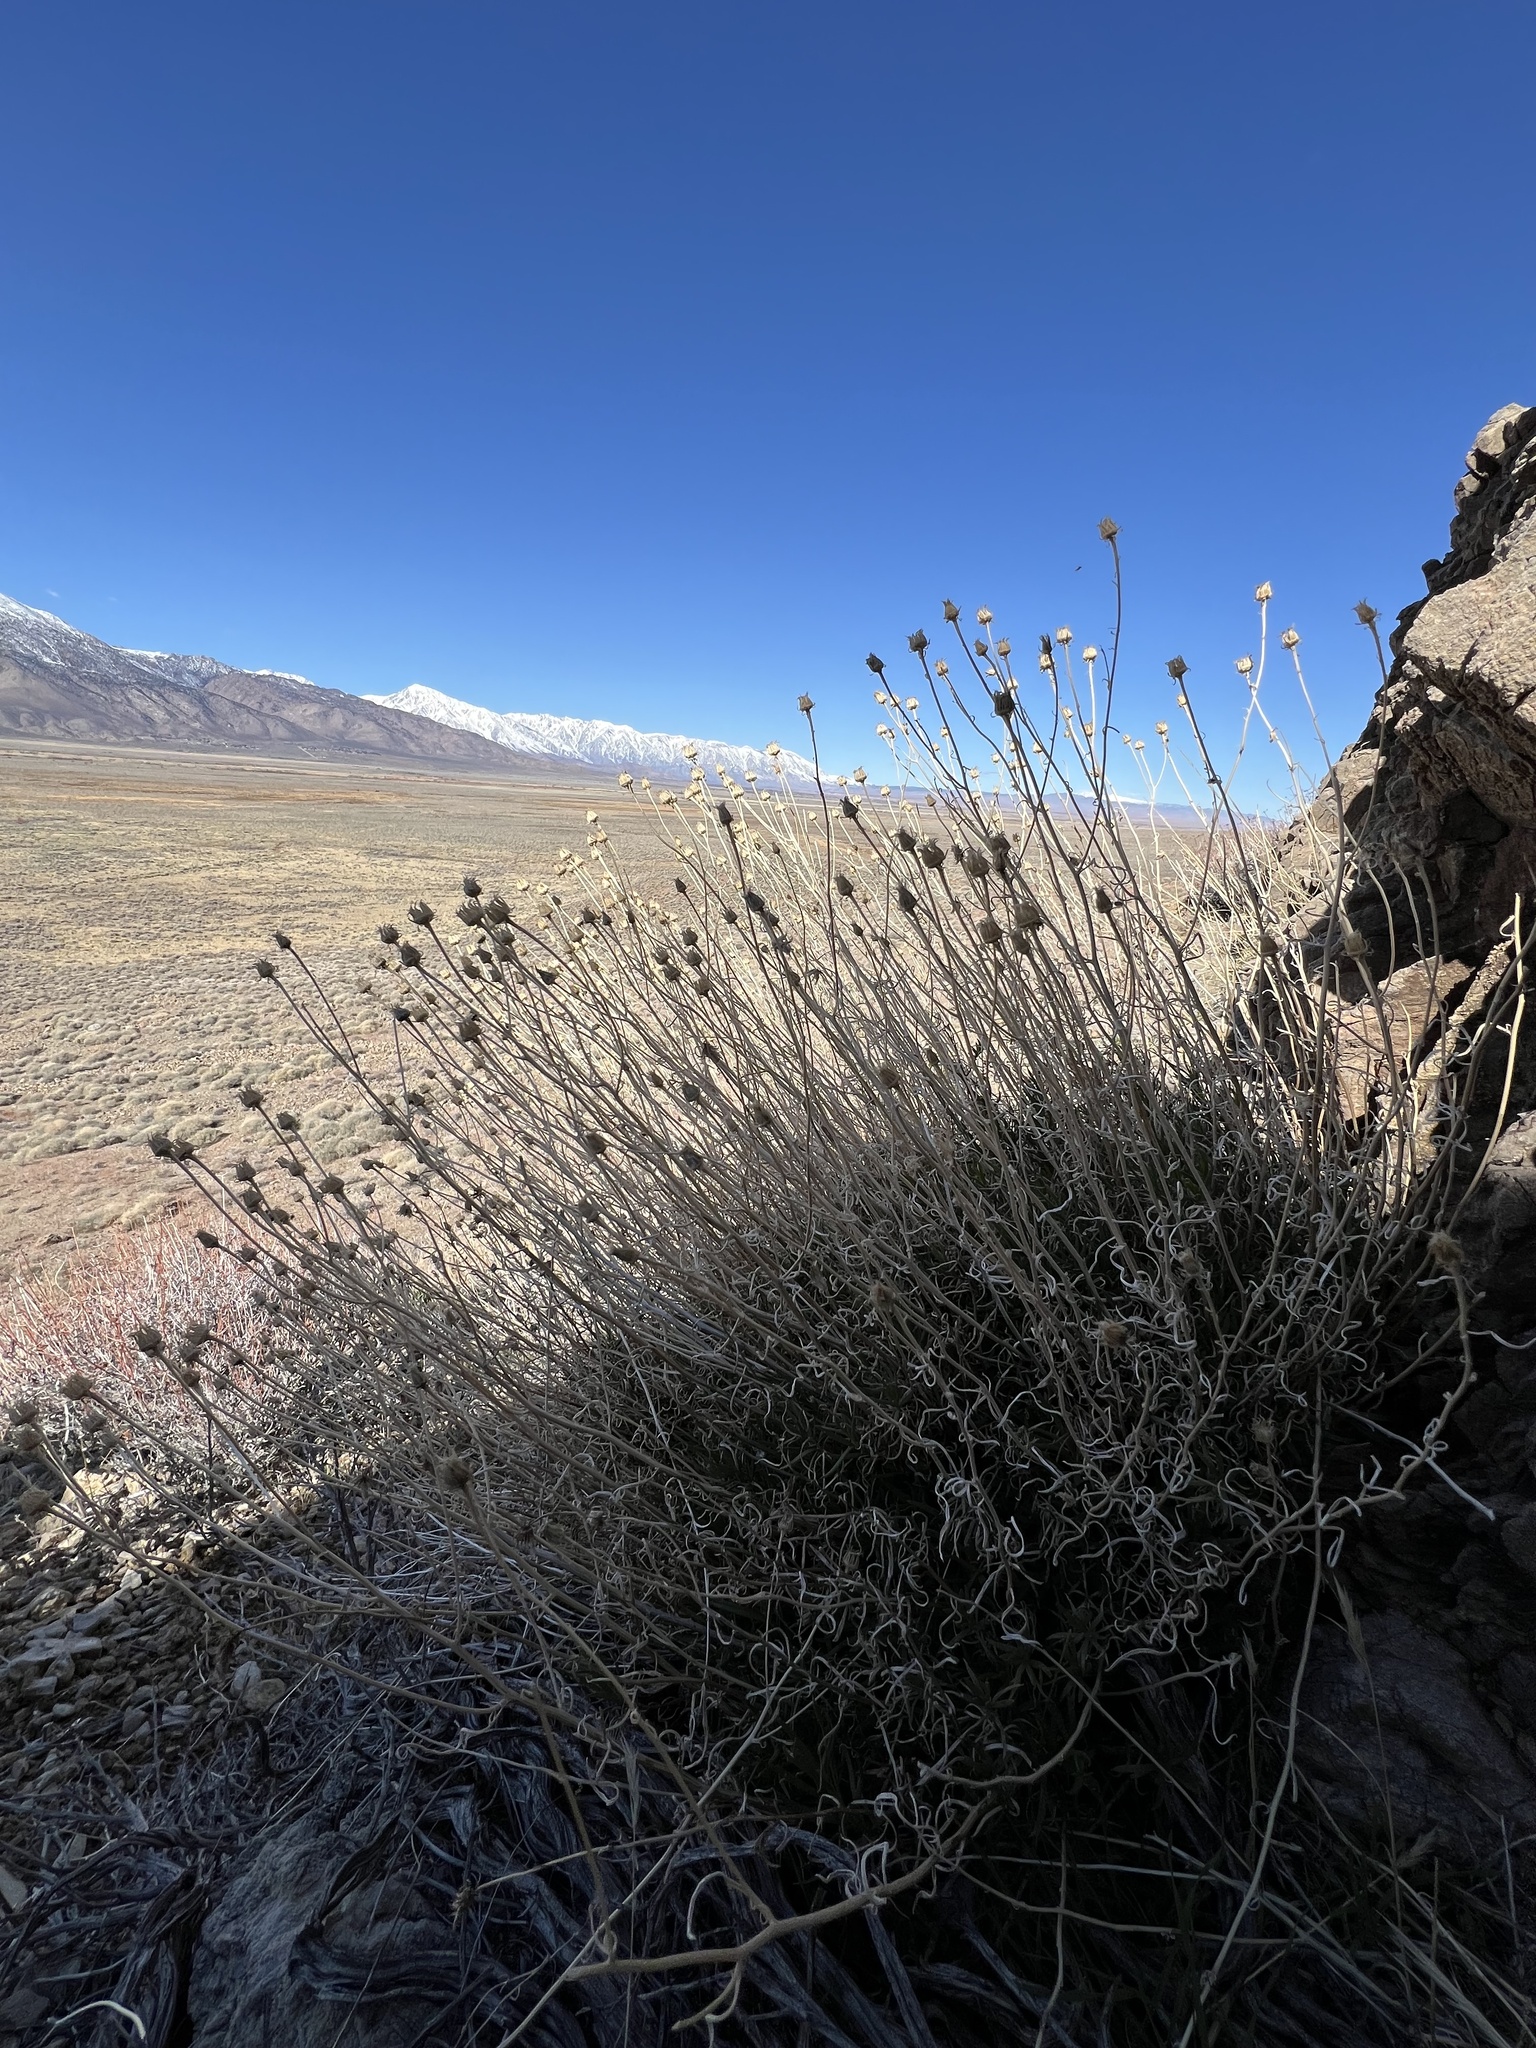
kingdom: Plantae
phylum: Tracheophyta
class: Magnoliopsida
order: Asterales
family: Asteraceae
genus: Senecio
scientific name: Senecio flaccidus
